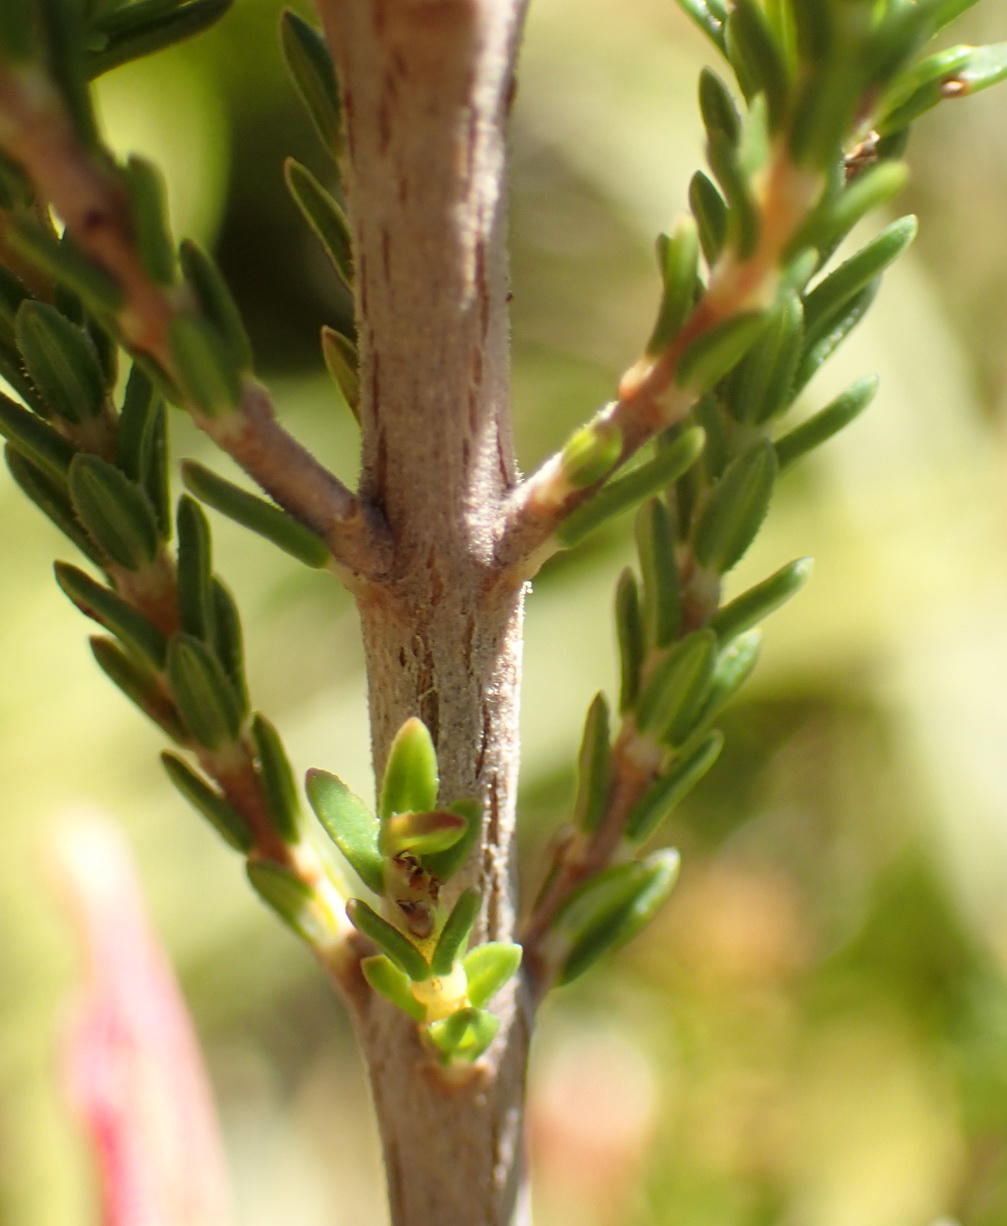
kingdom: Plantae
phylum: Tracheophyta
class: Magnoliopsida
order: Ericales
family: Ericaceae
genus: Erica
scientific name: Erica versicolor
